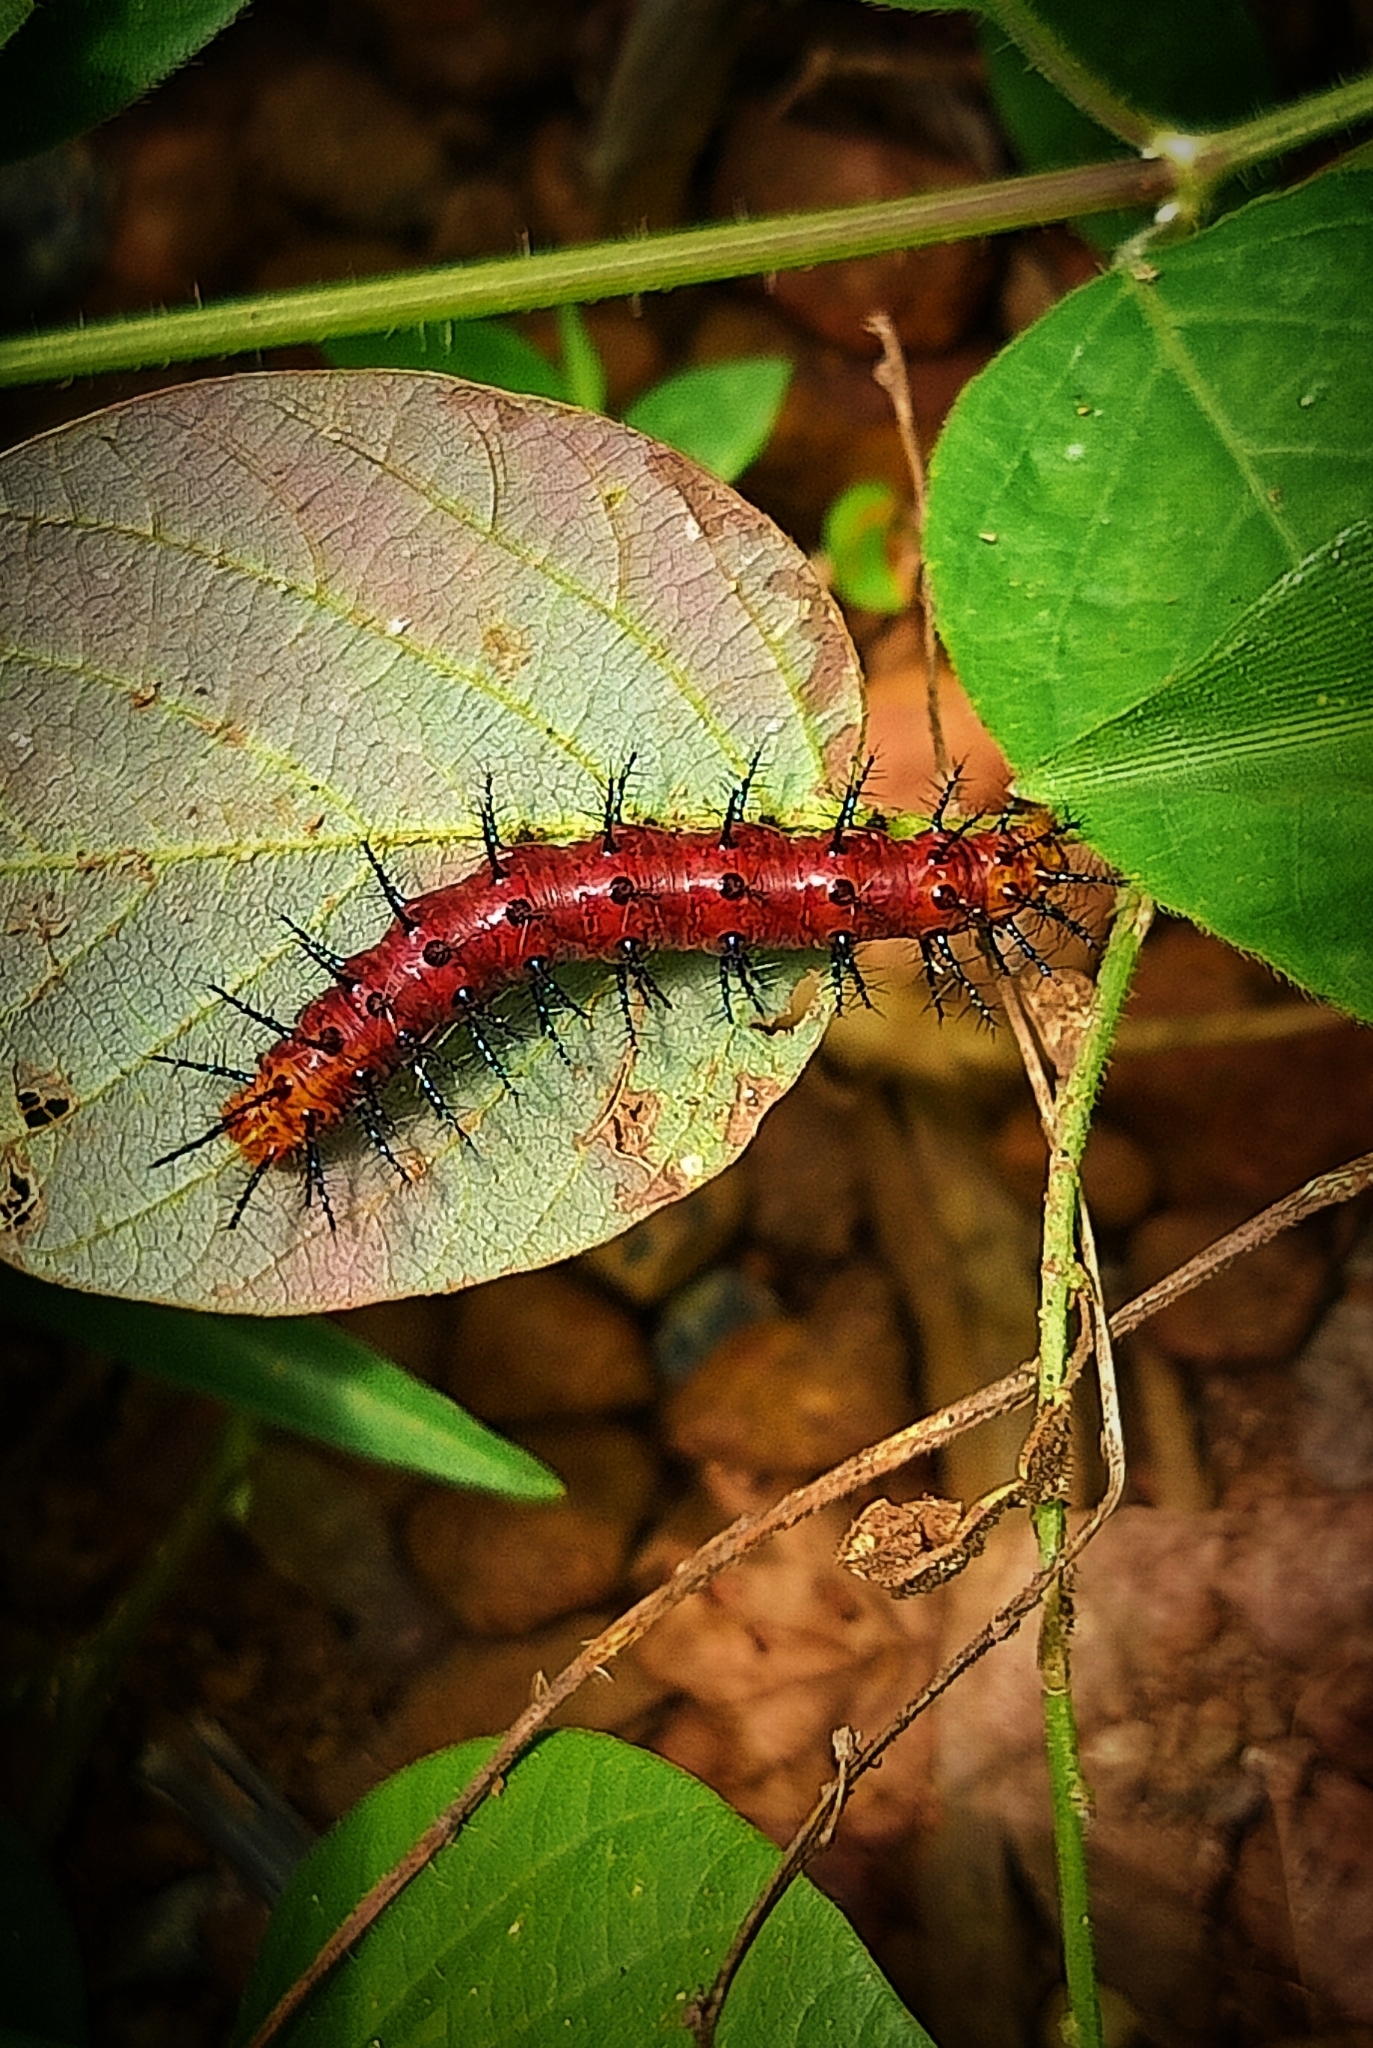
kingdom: Animalia
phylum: Arthropoda
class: Insecta
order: Lepidoptera
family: Nymphalidae
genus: Acraea
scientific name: Acraea terpsicore
